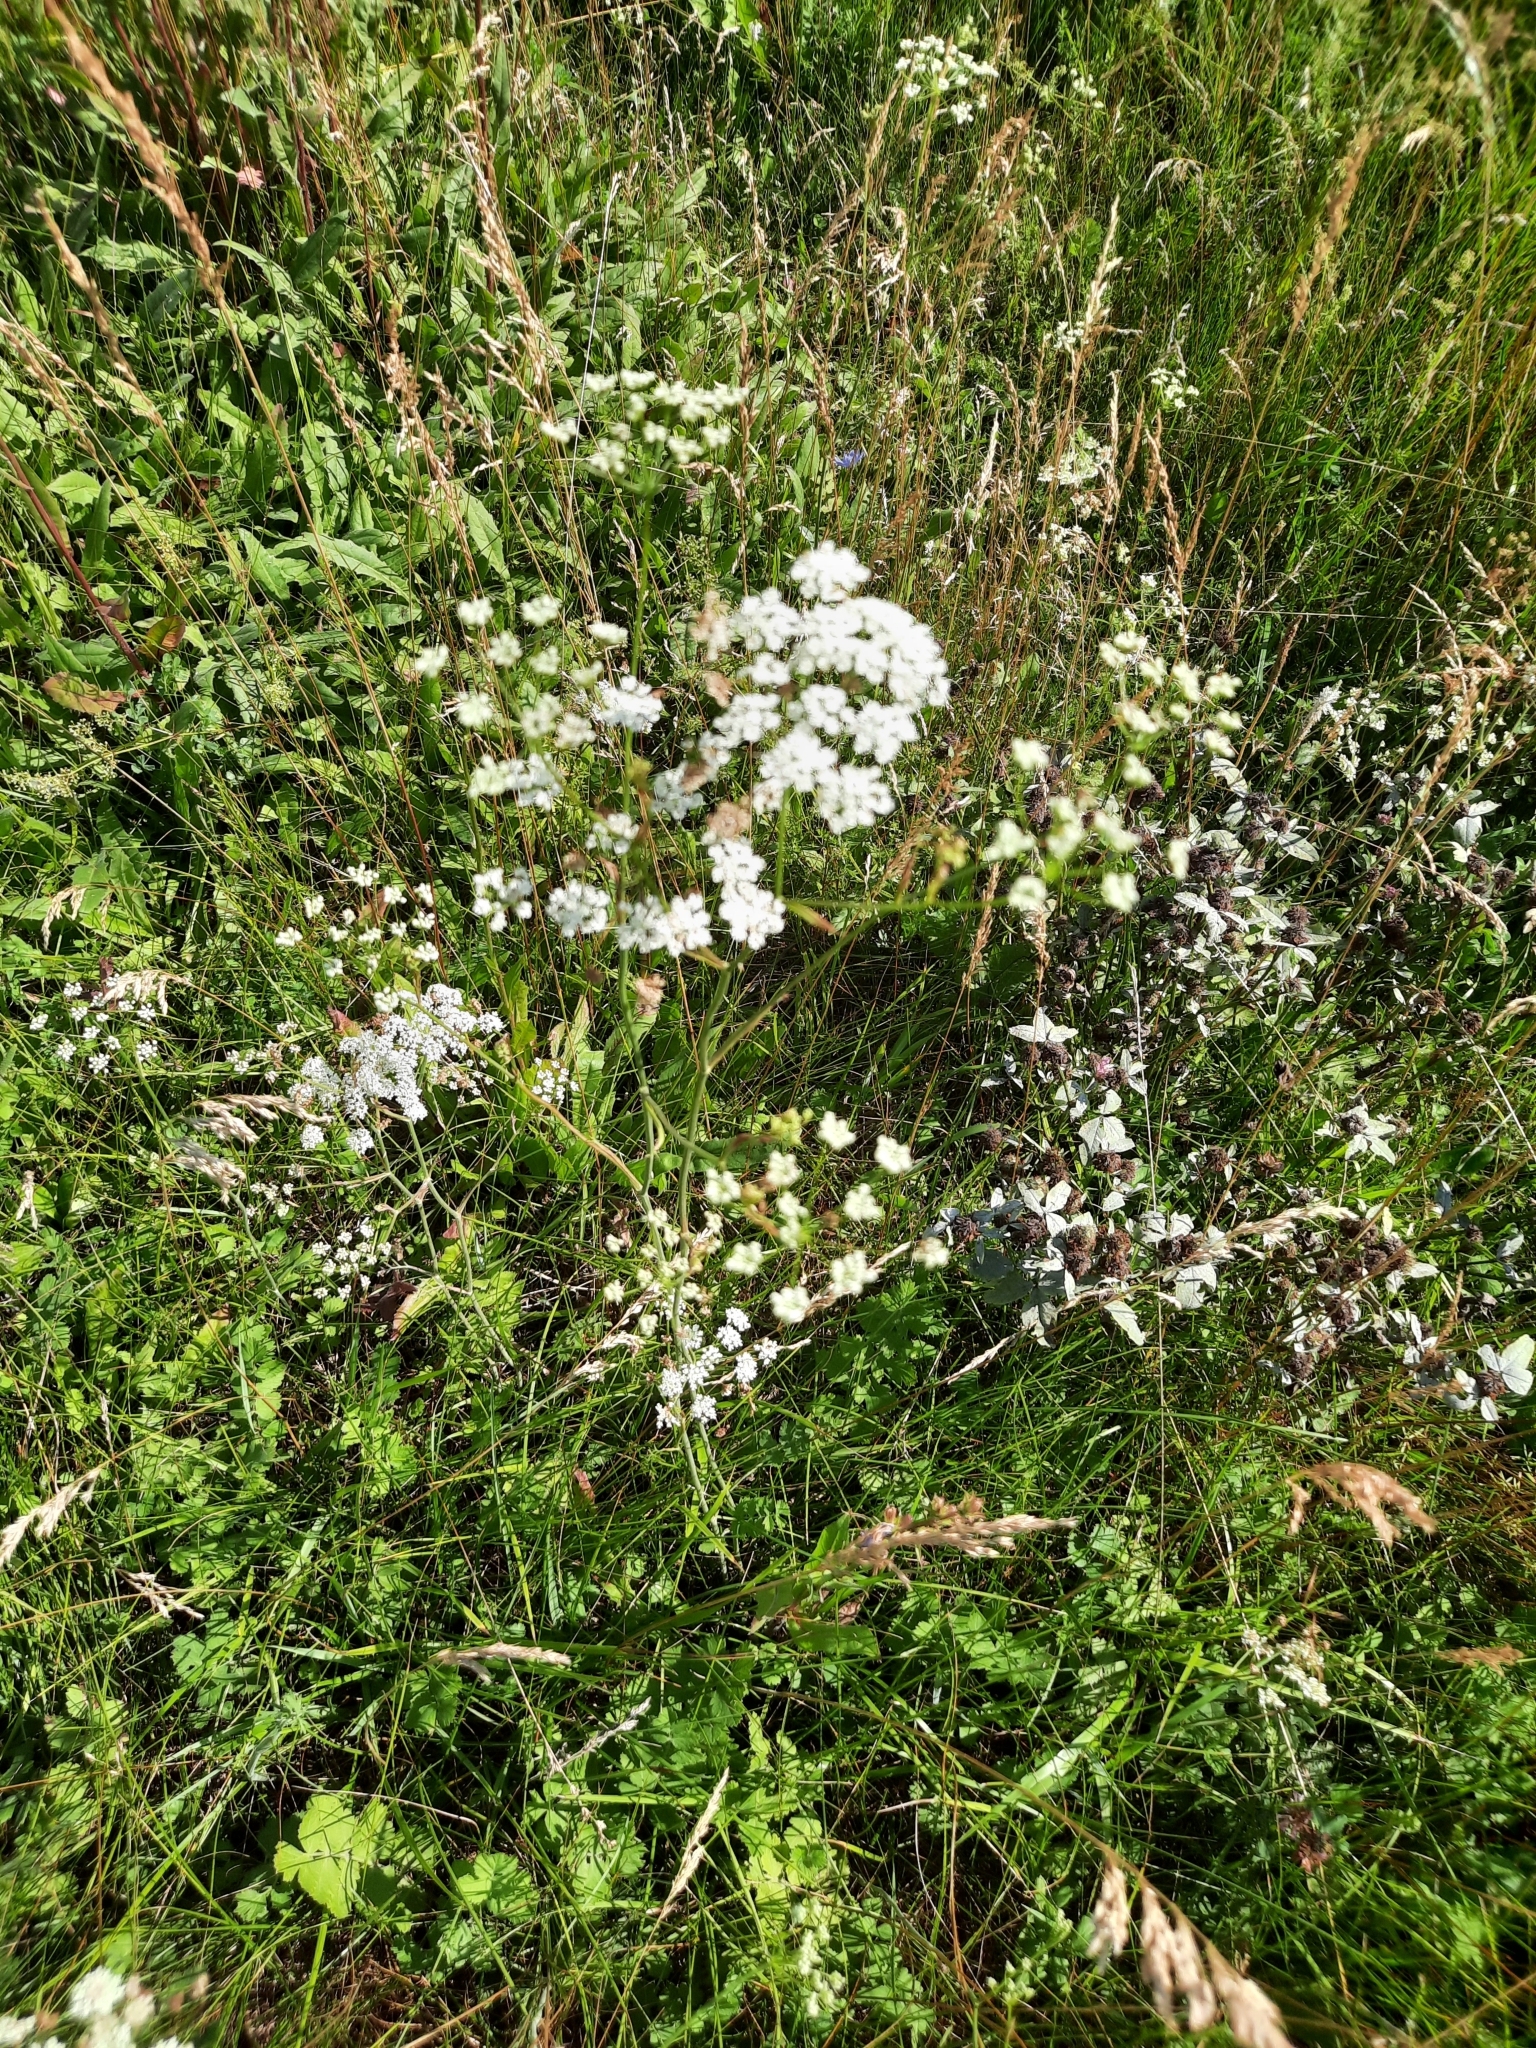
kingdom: Plantae
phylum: Tracheophyta
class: Magnoliopsida
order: Apiales
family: Apiaceae
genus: Pimpinella
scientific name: Pimpinella saxifraga
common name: Burnet-saxifrage
